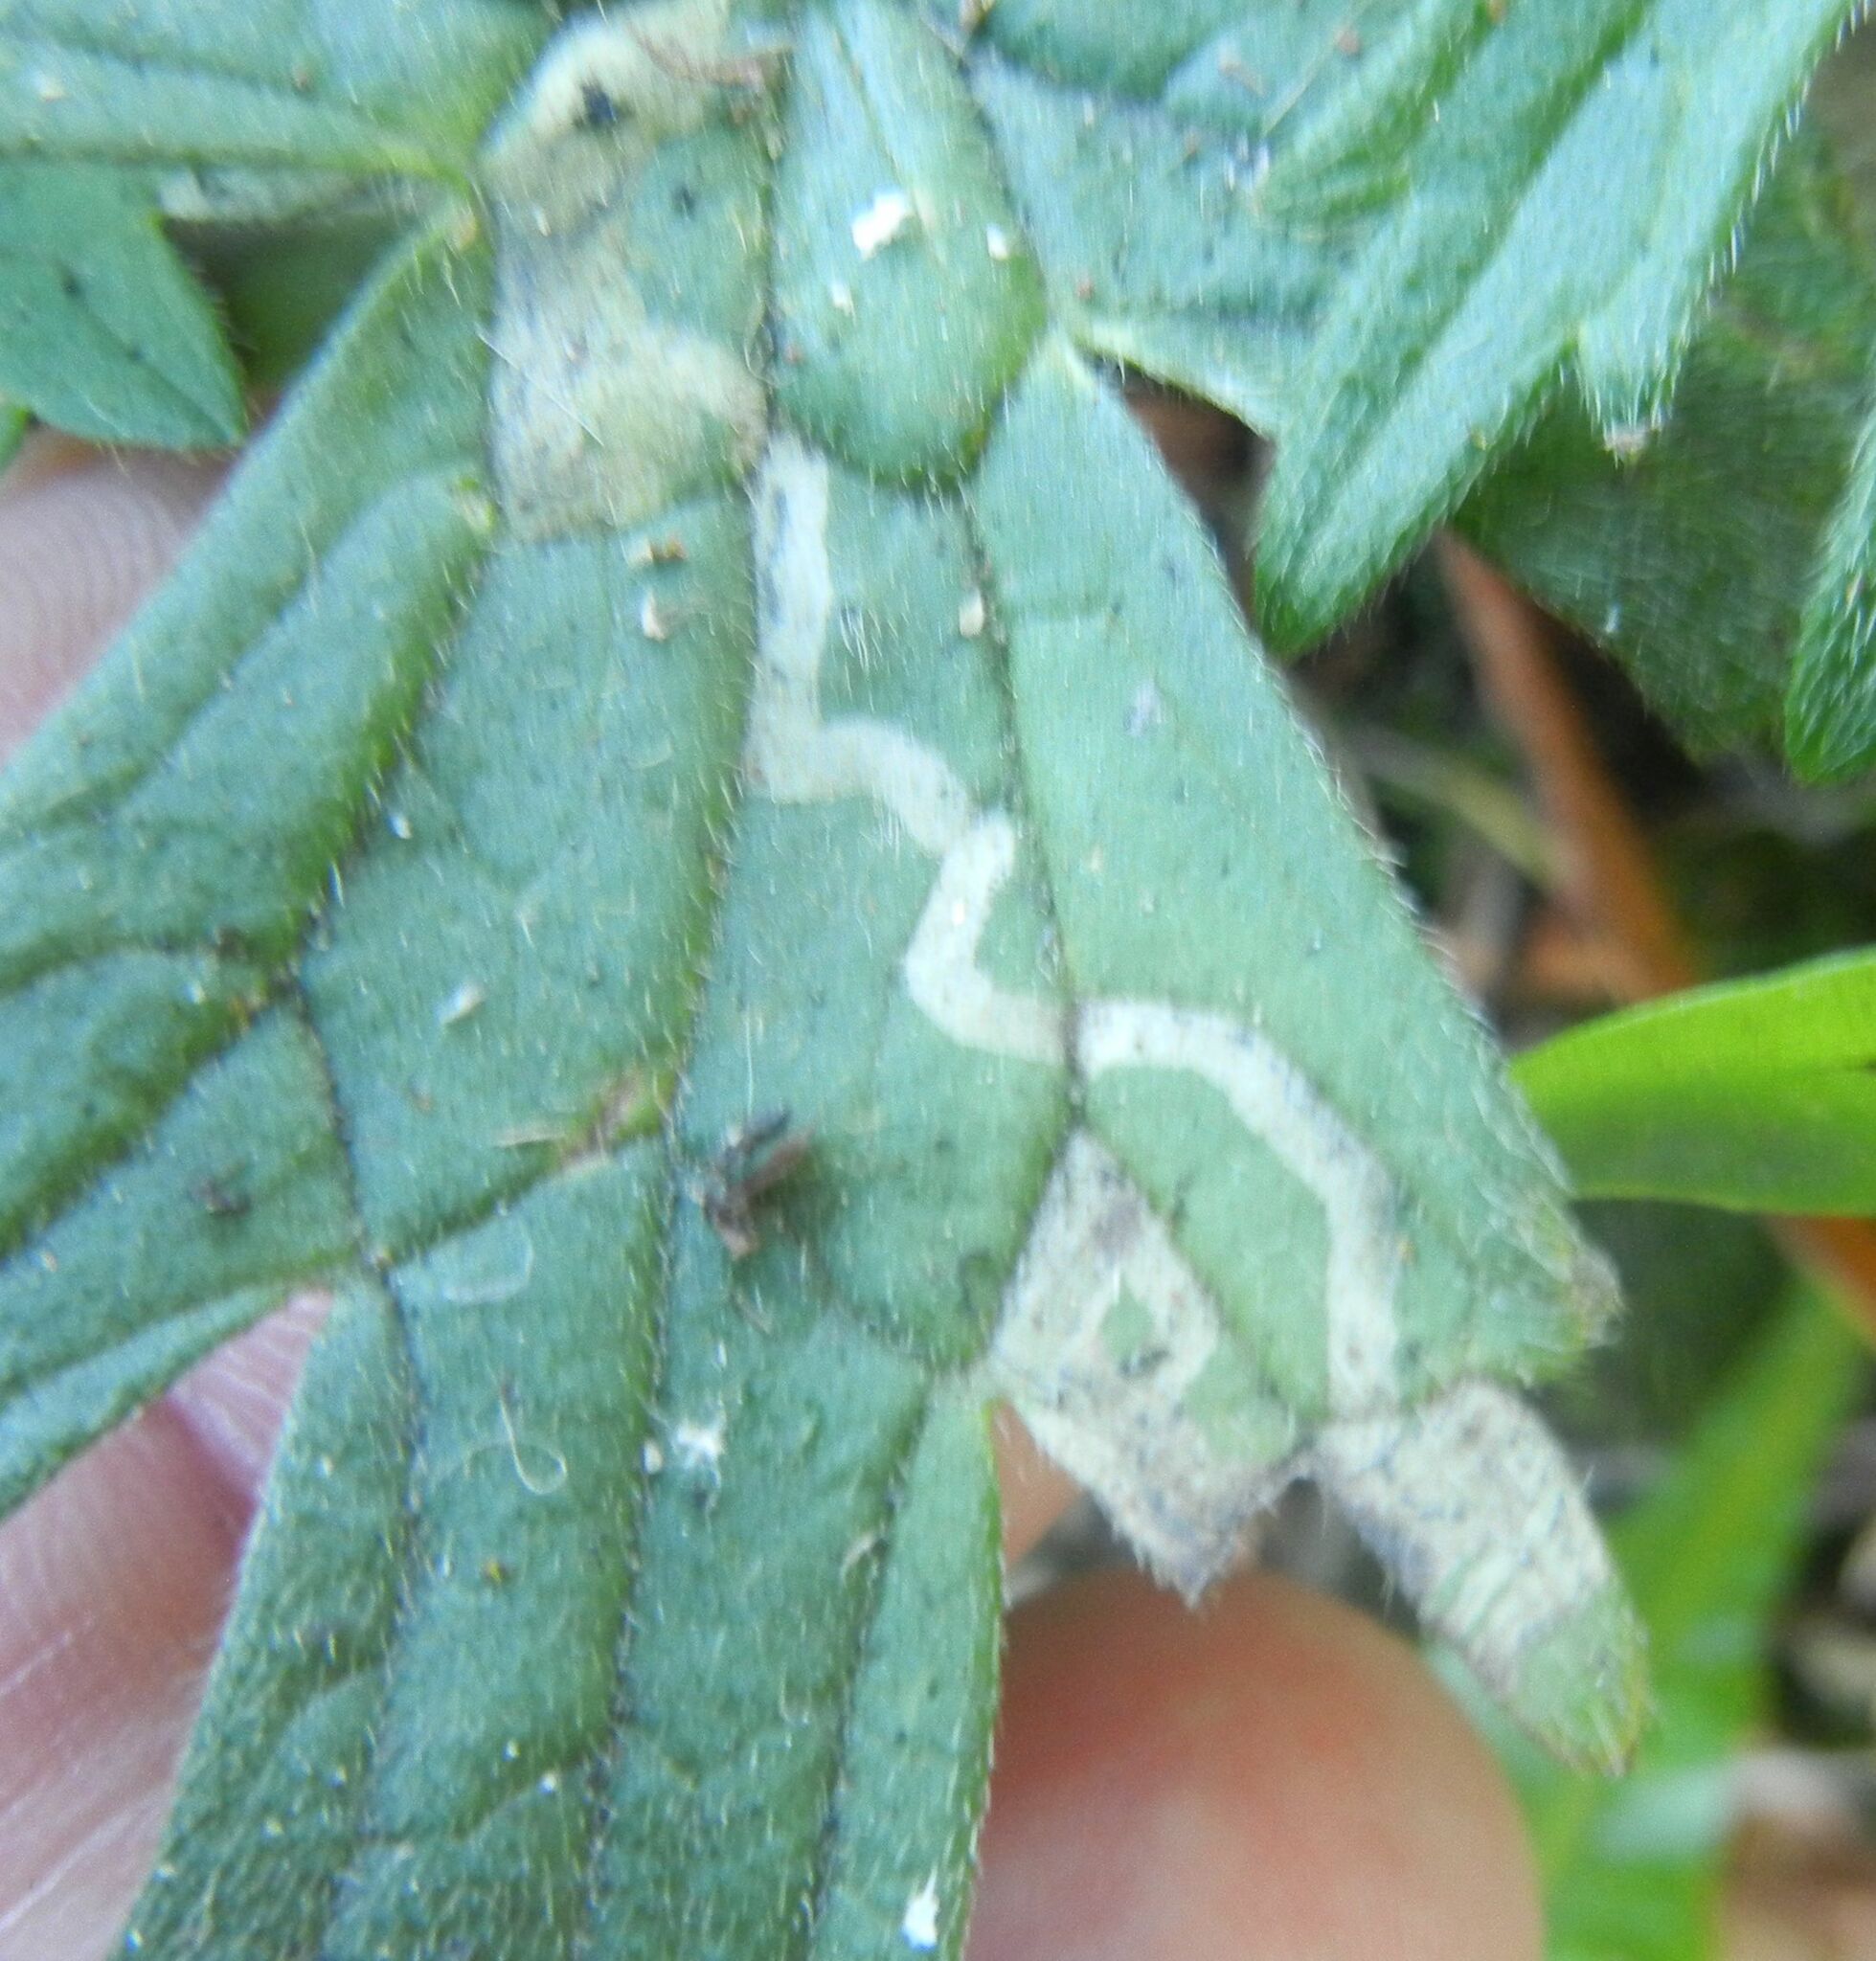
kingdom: Animalia
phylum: Arthropoda
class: Insecta
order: Diptera
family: Agromyzidae
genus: Phytomyza
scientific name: Phytomyza ranunculi
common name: Leaf-miner fly
